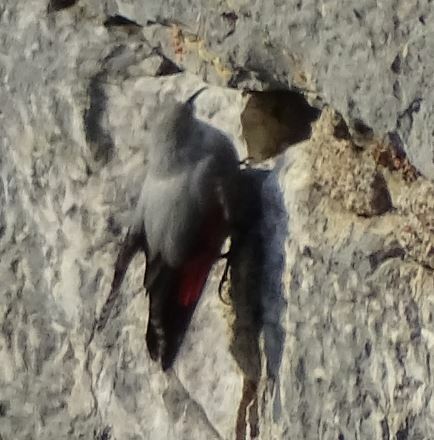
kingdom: Animalia
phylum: Chordata
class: Aves
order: Passeriformes
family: Tichodromidae
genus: Tichodroma
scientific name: Tichodroma muraria
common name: Wallcreeper
